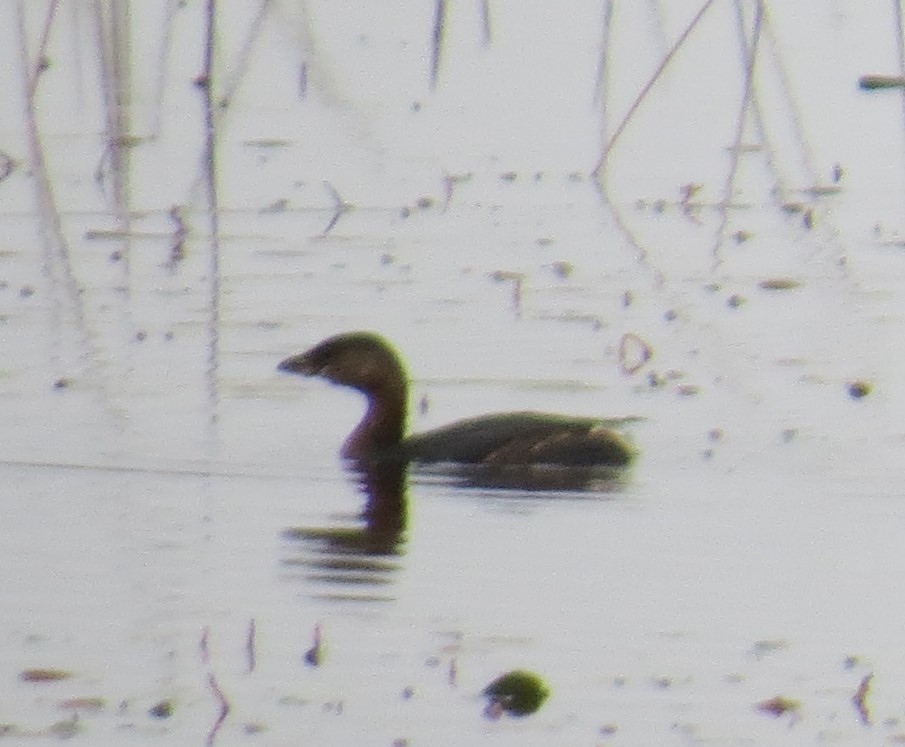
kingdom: Animalia
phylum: Chordata
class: Aves
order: Podicipediformes
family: Podicipedidae
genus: Podilymbus
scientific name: Podilymbus podiceps
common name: Pied-billed grebe
